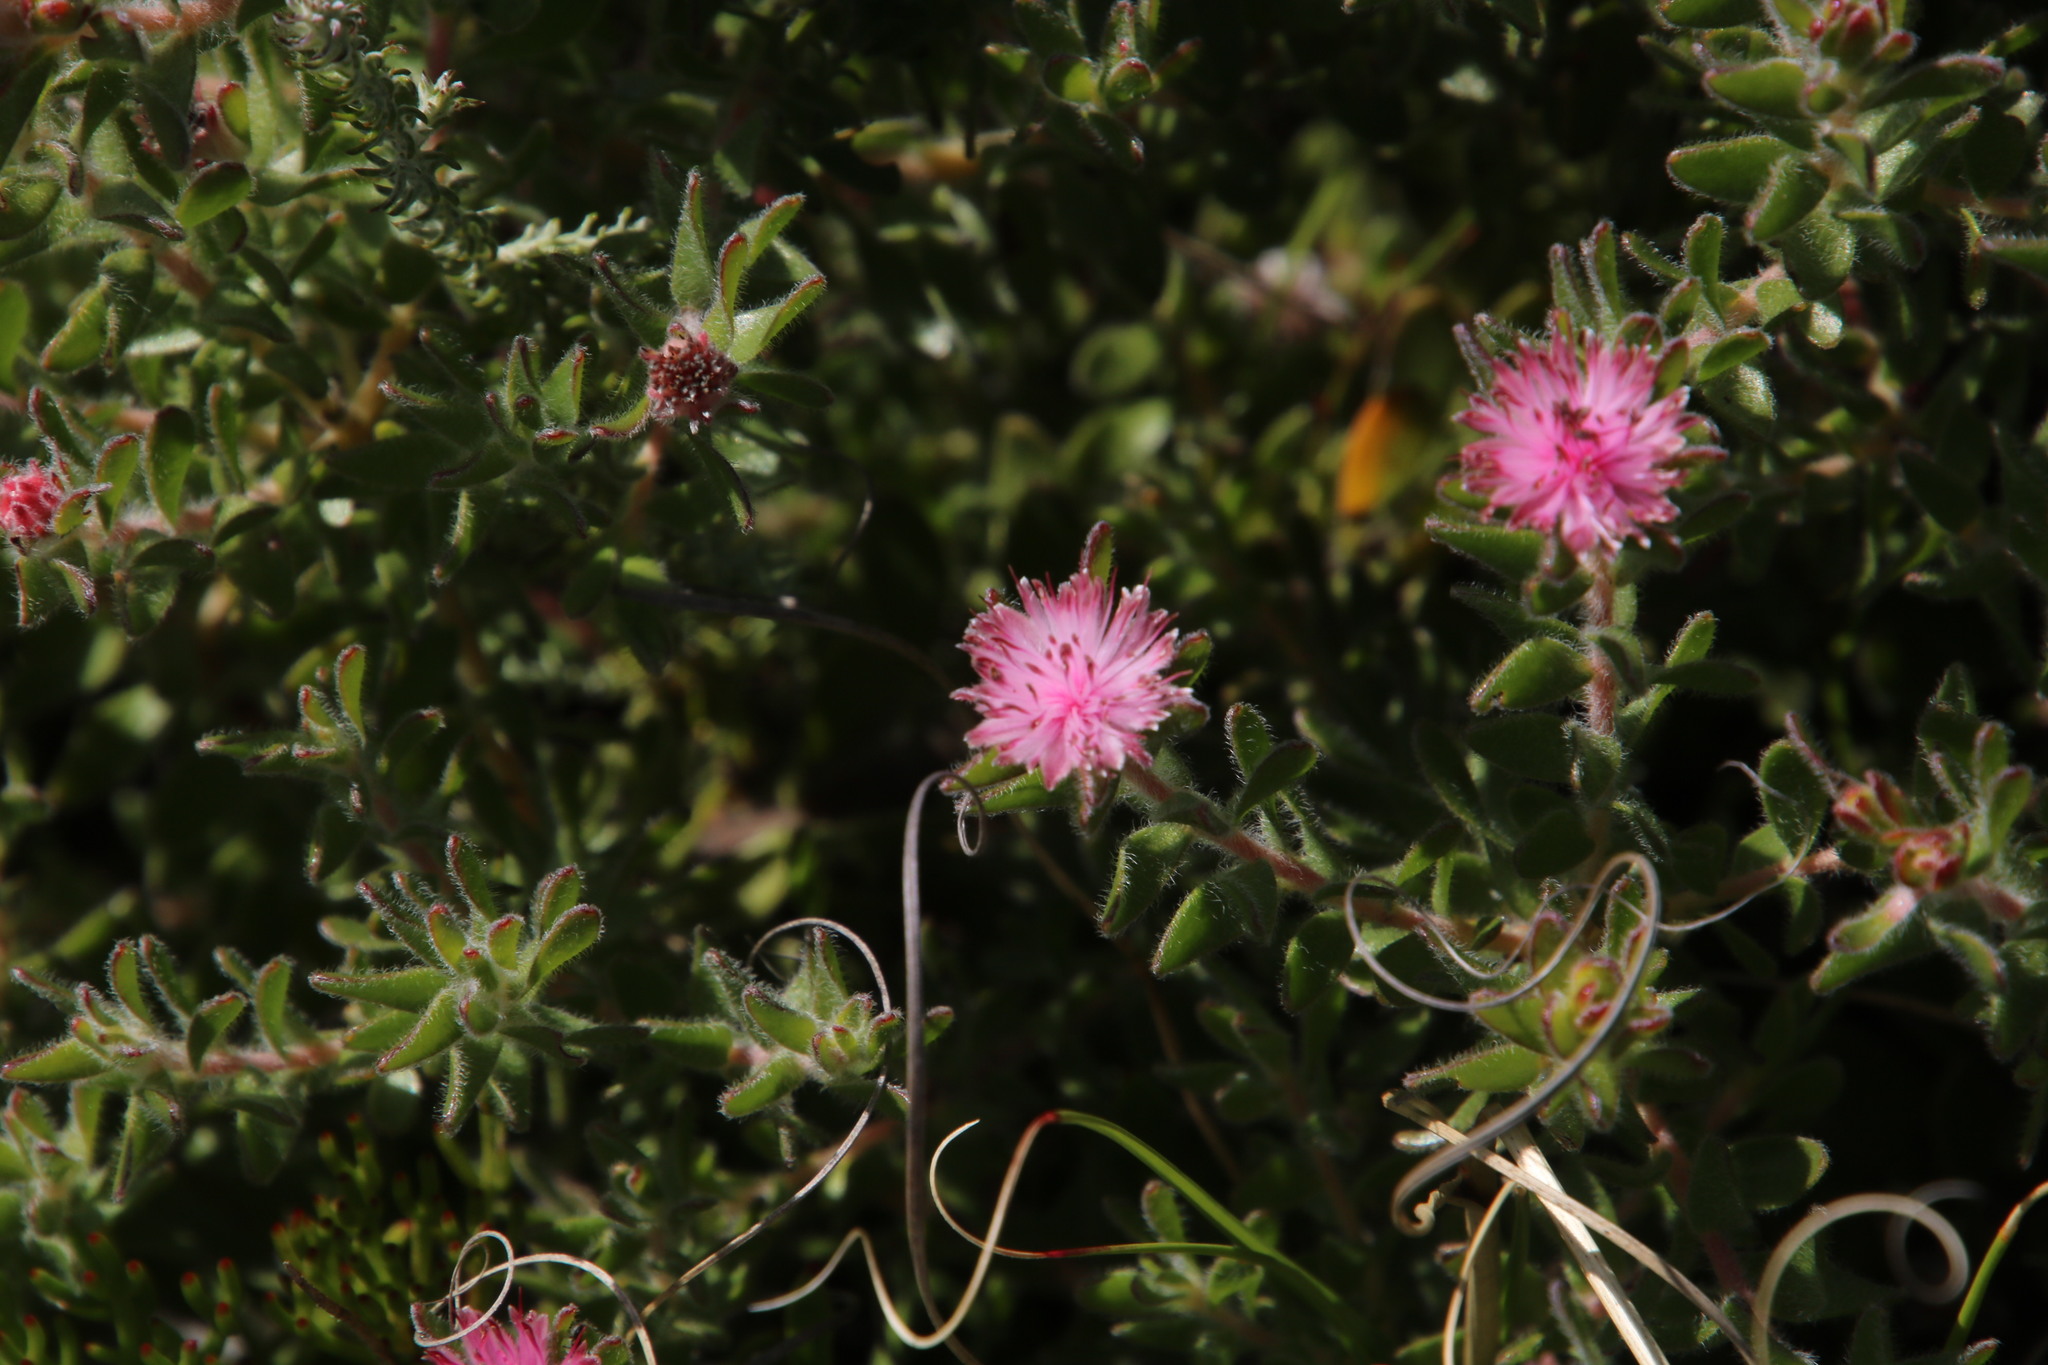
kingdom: Plantae
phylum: Tracheophyta
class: Magnoliopsida
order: Proteales
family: Proteaceae
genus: Diastella
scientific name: Diastella divaricata
